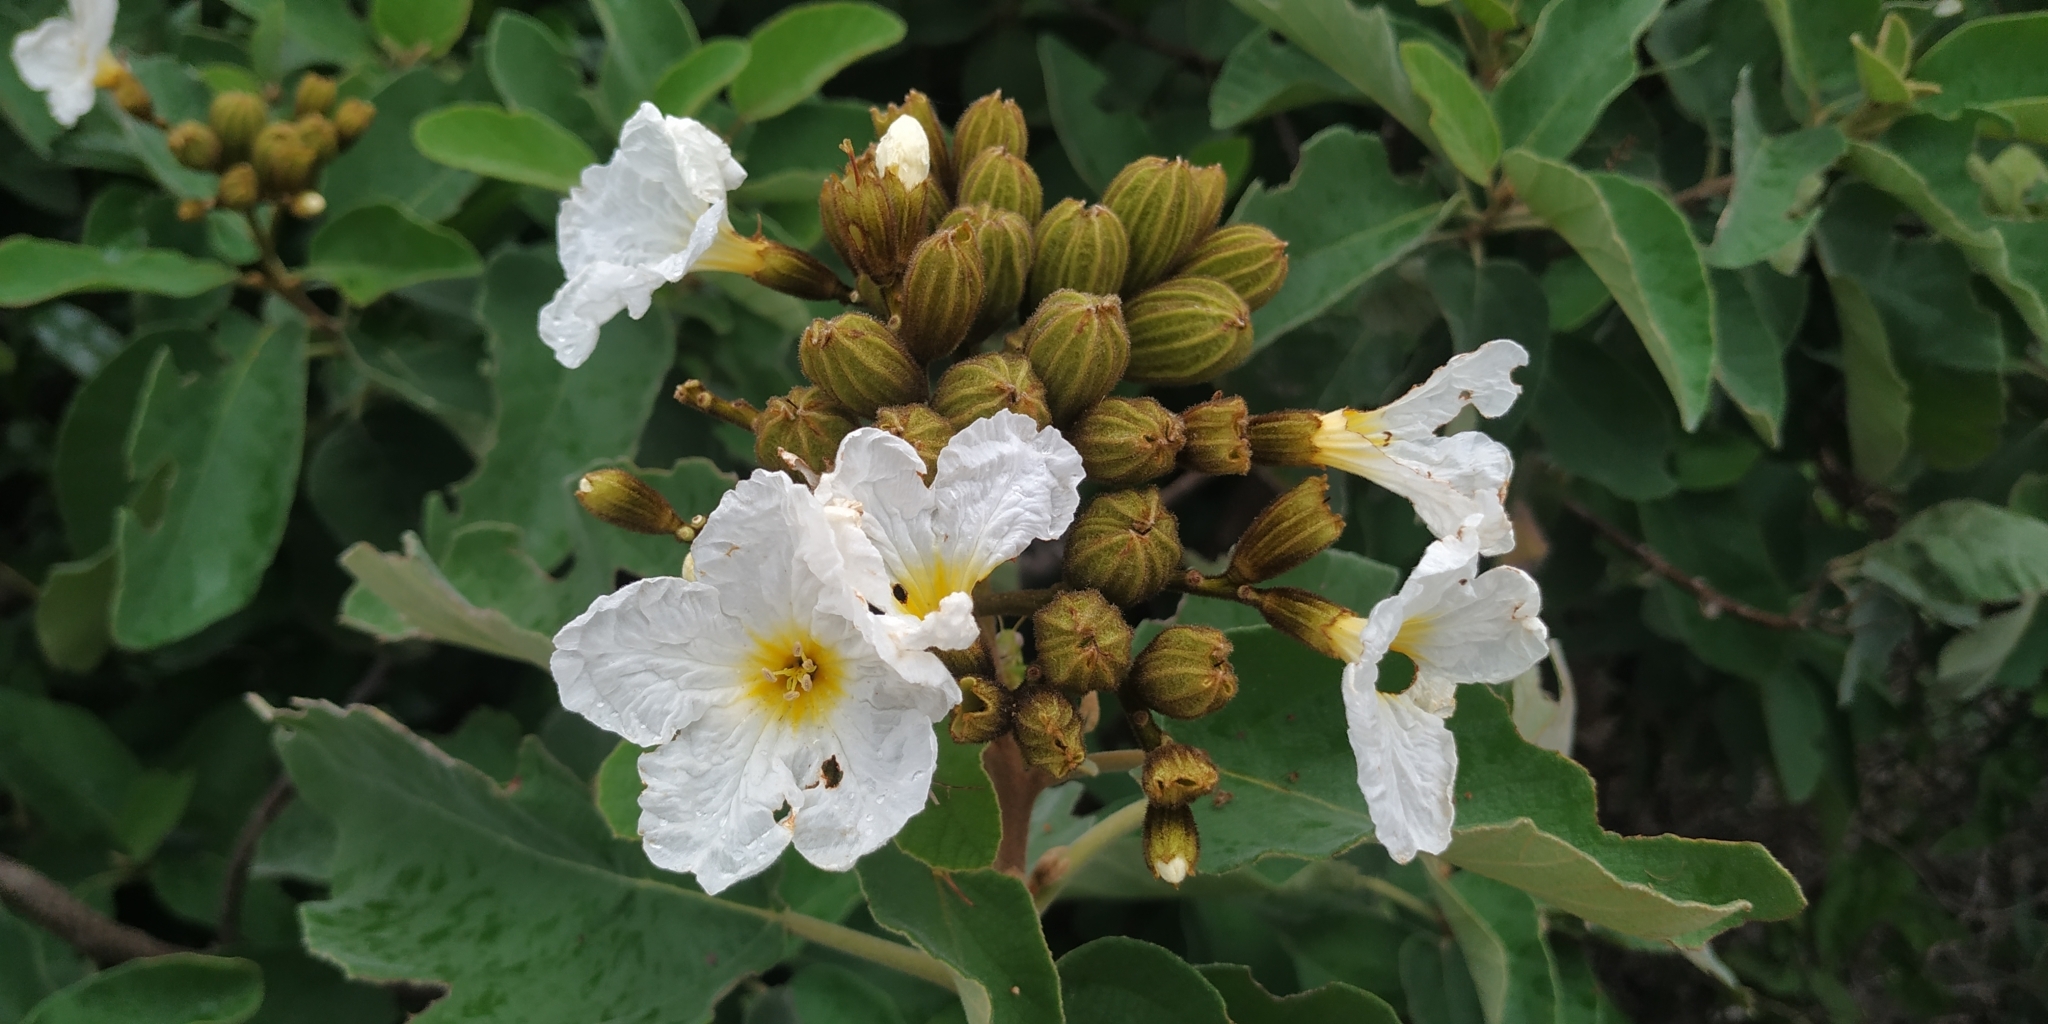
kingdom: Plantae
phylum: Tracheophyta
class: Magnoliopsida
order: Boraginales
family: Cordiaceae
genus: Cordia
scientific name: Cordia boissieri
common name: Mexican-olive
